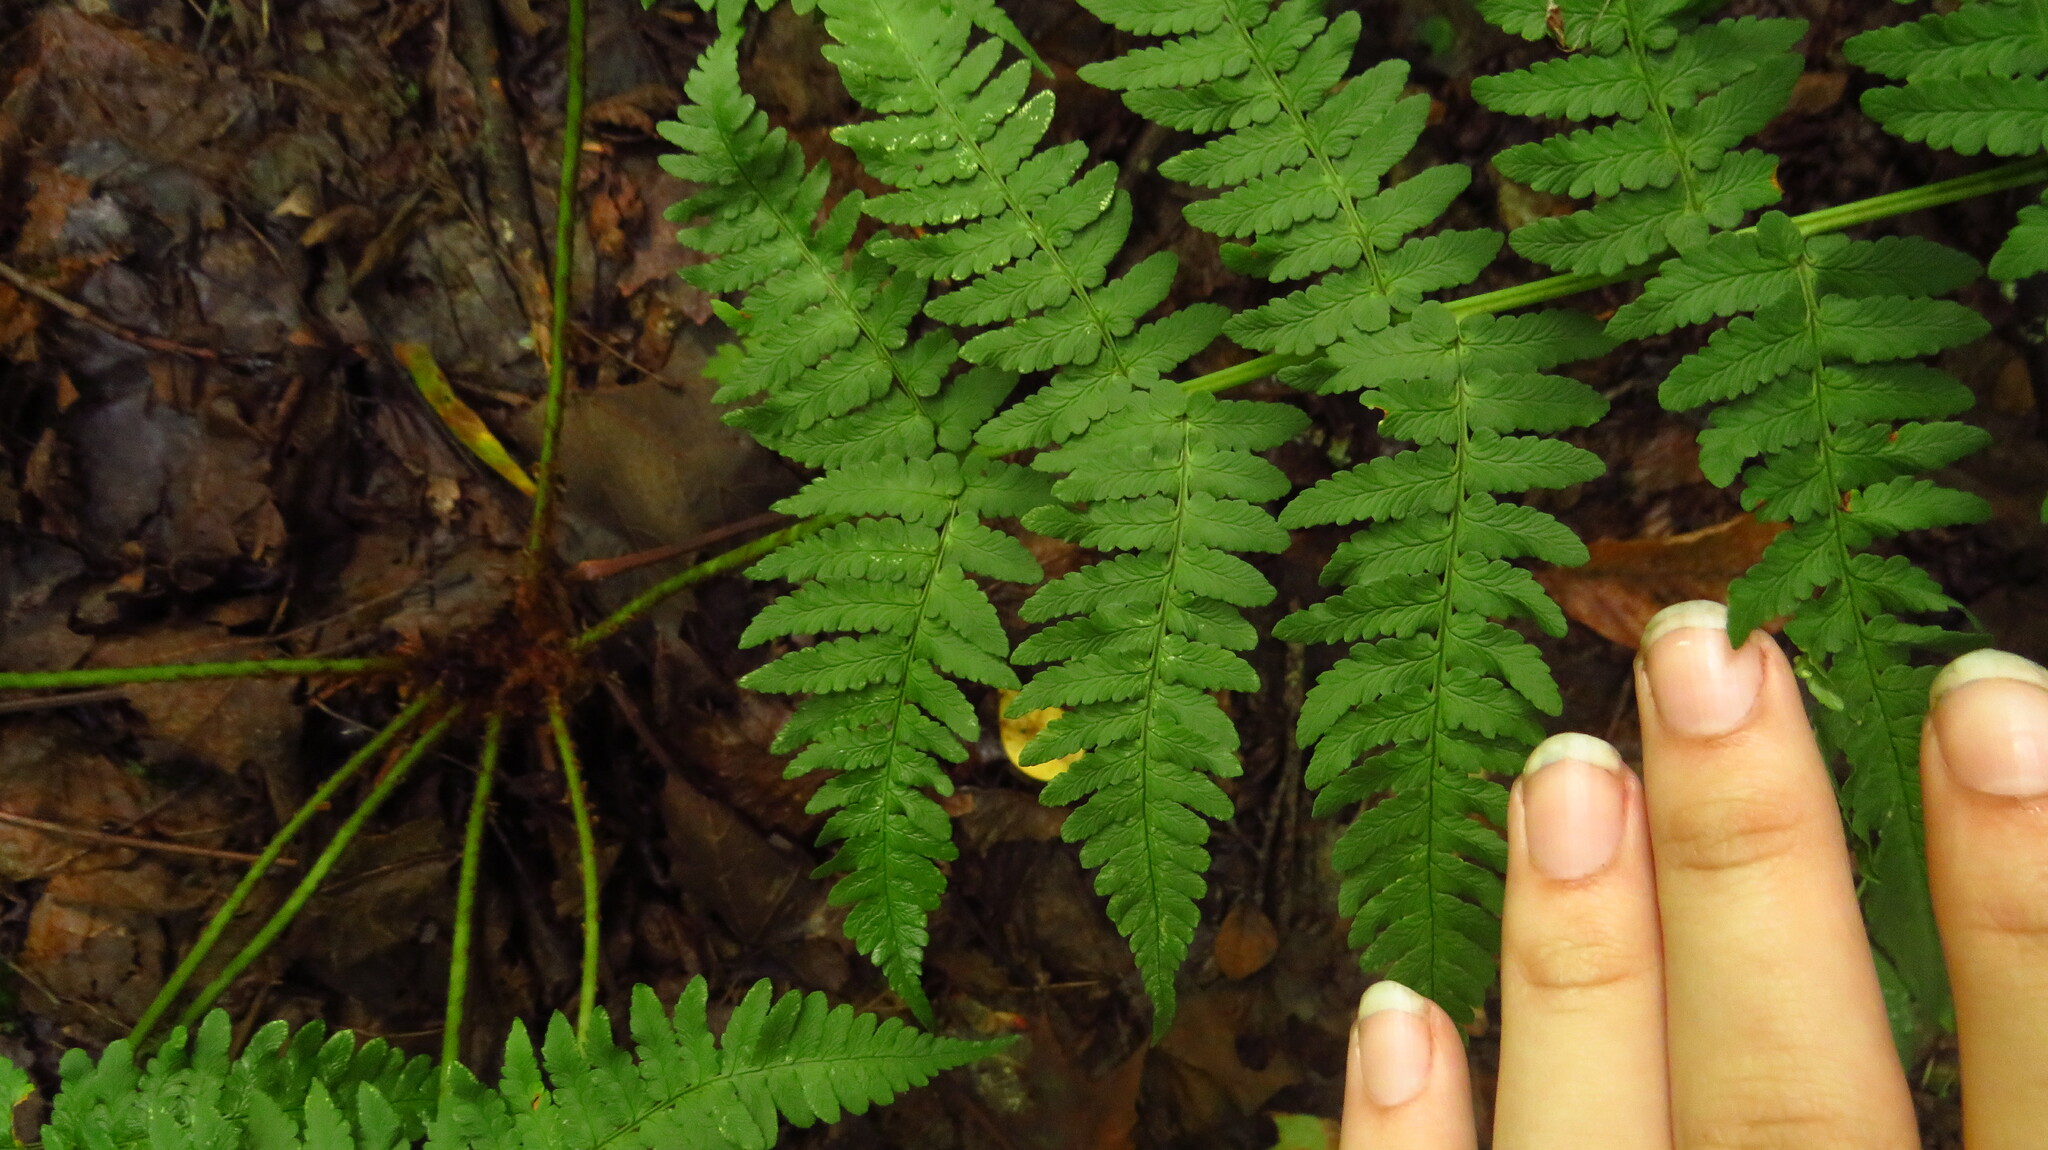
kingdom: Plantae
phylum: Tracheophyta
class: Polypodiopsida
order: Polypodiales
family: Dryopteridaceae
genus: Dryopteris
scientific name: Dryopteris marginalis
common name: Marginal wood fern
